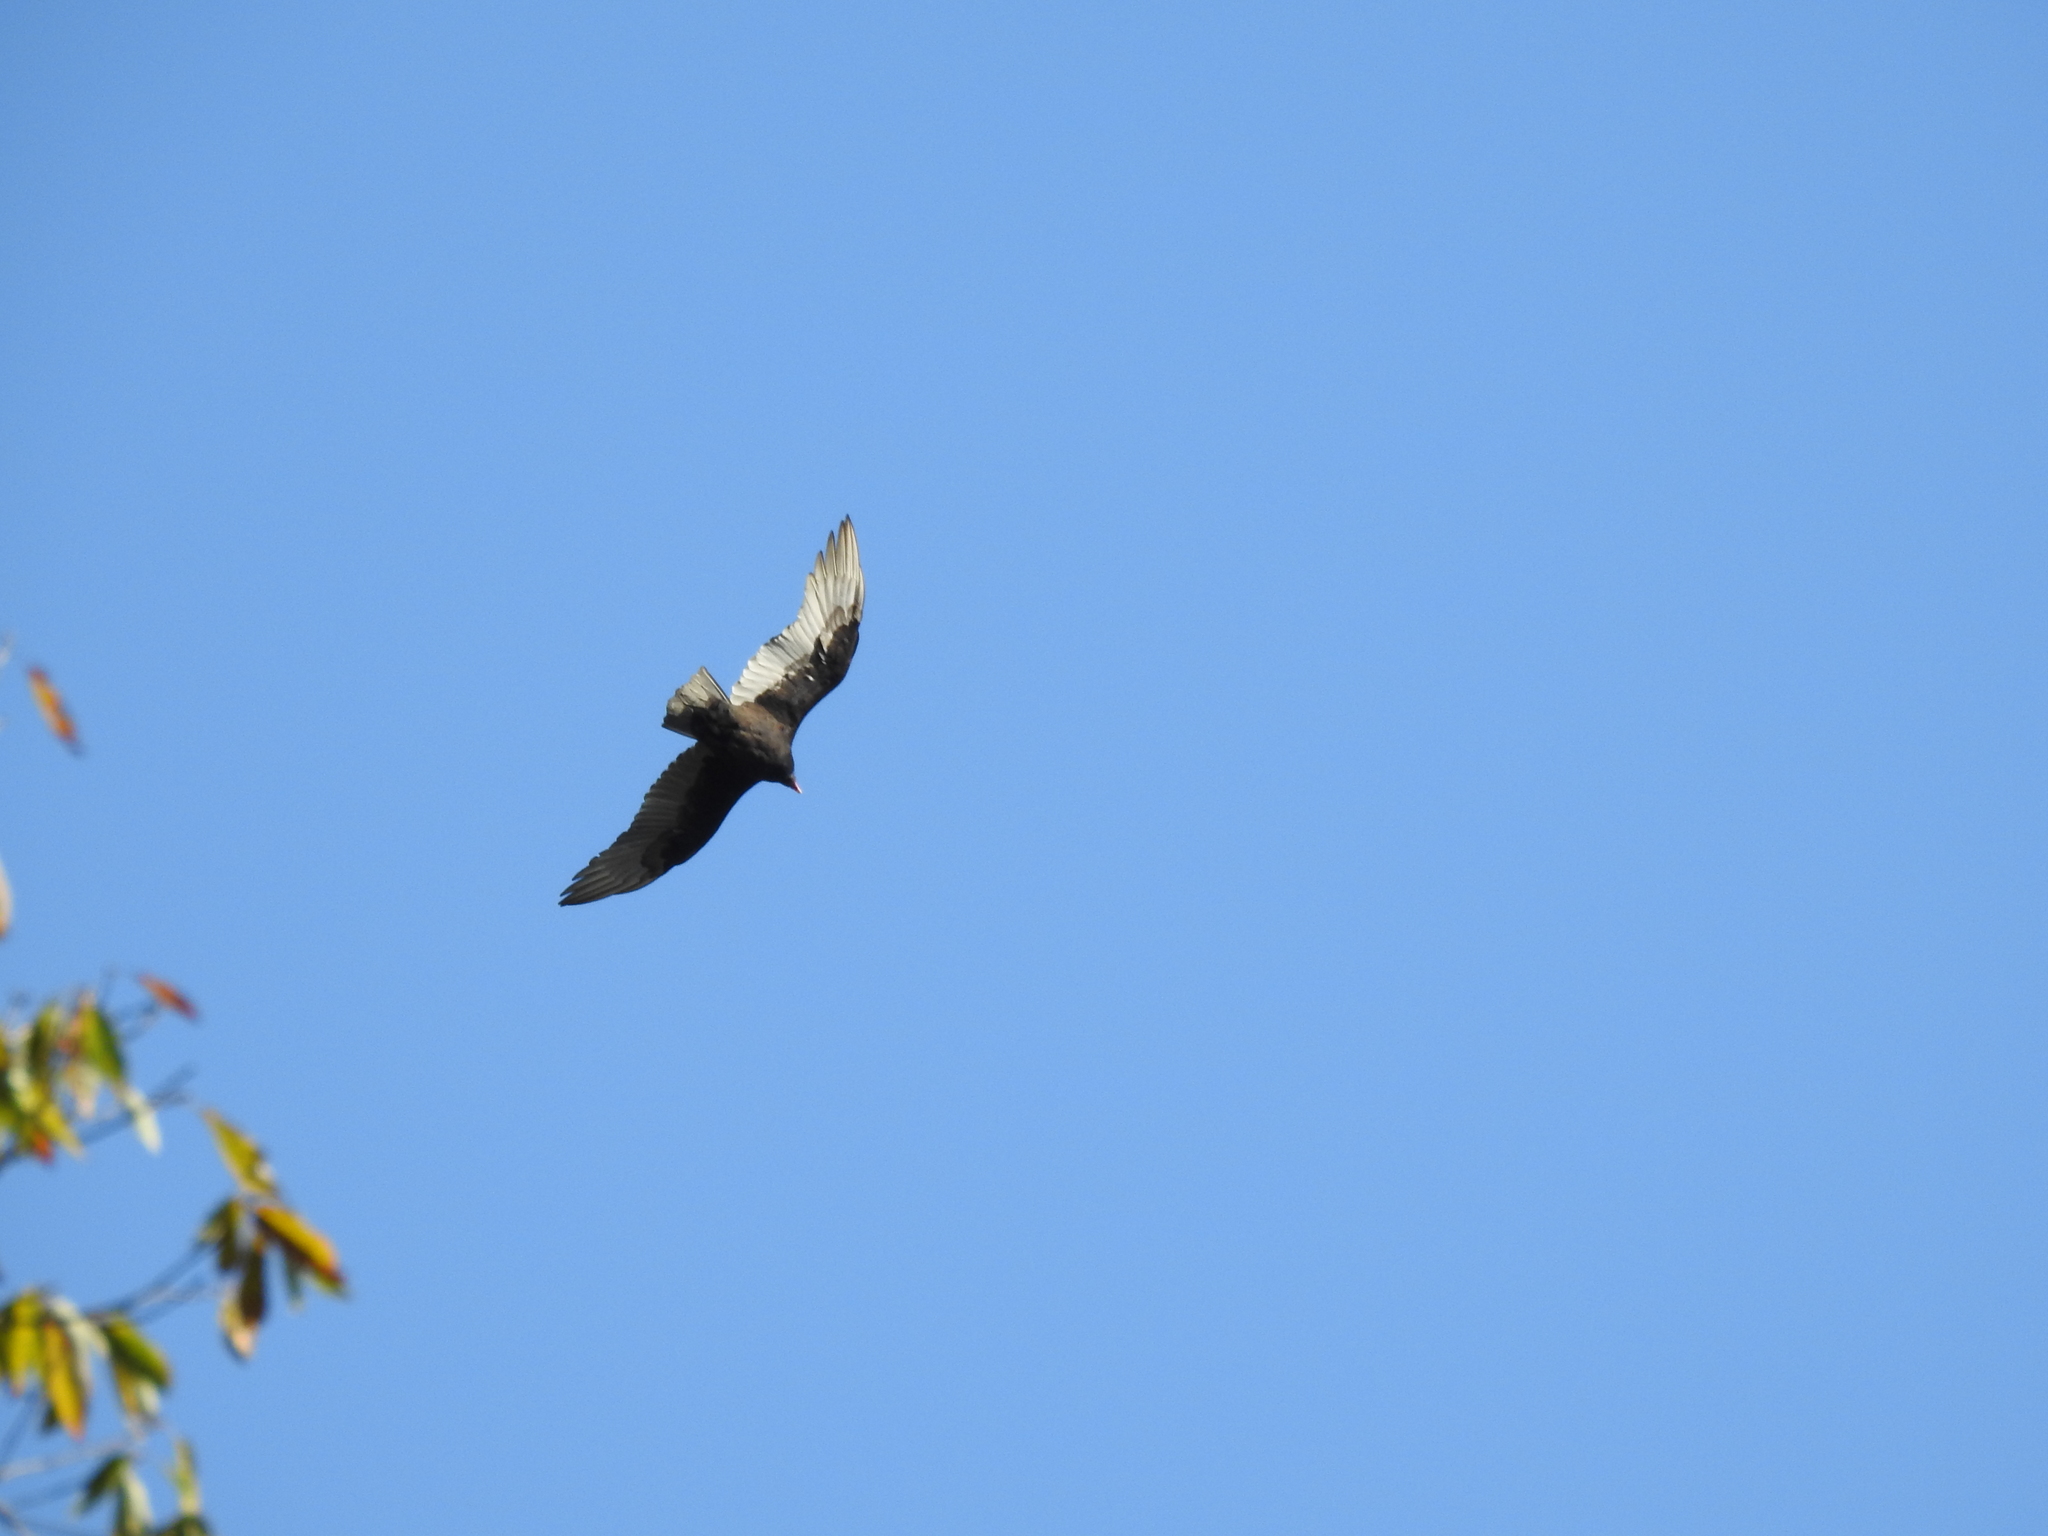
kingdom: Animalia
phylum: Chordata
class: Aves
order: Accipitriformes
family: Cathartidae
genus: Cathartes
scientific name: Cathartes aura
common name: Turkey vulture
